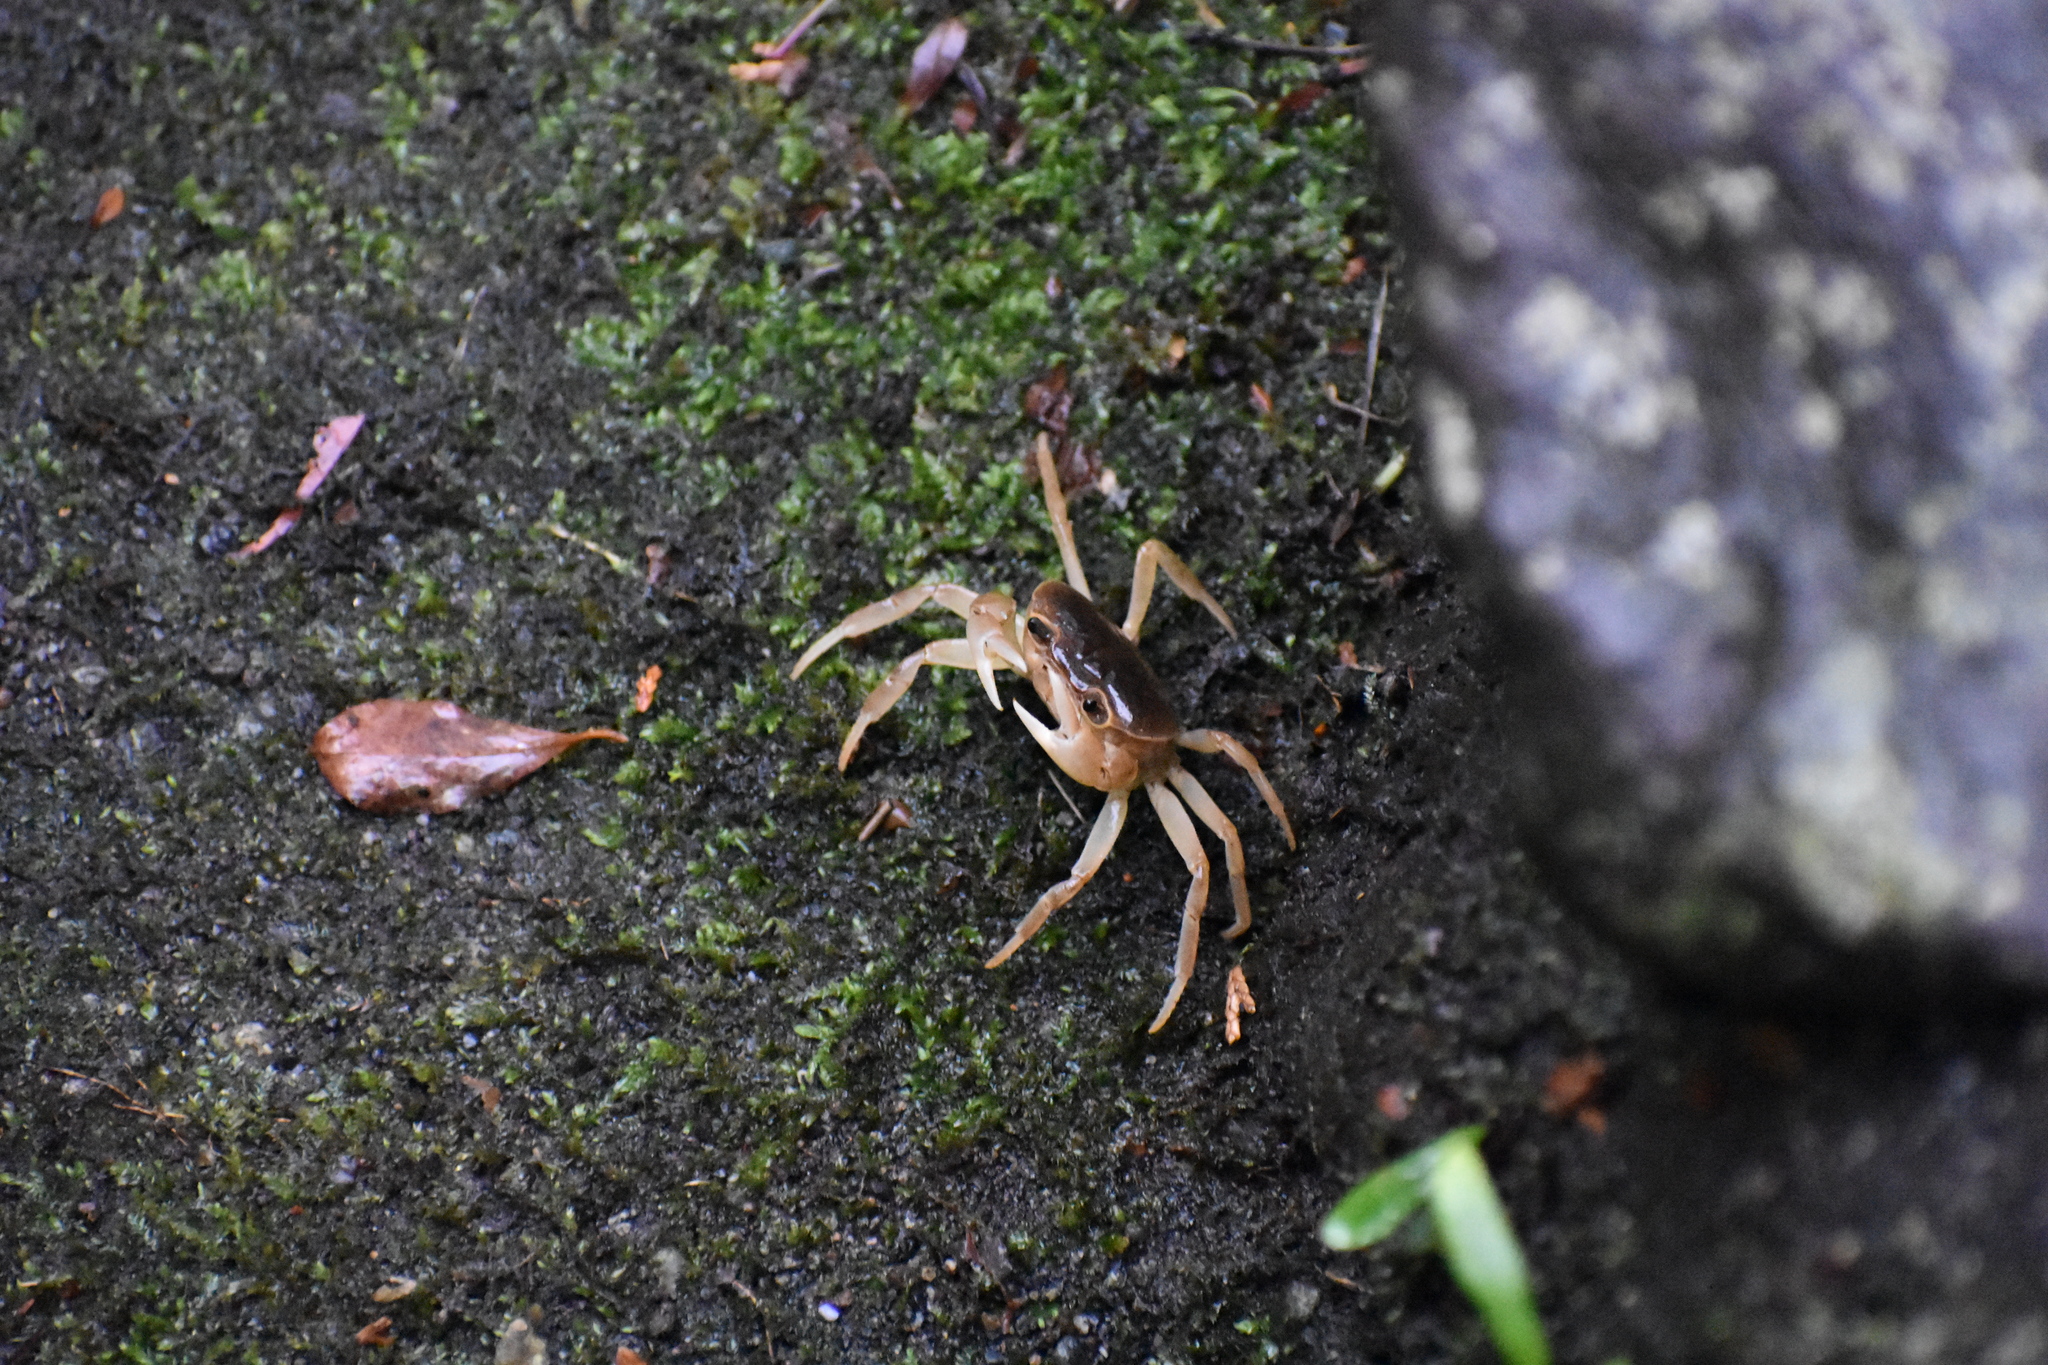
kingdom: Animalia
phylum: Arthropoda
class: Malacostraca
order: Decapoda
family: Potamidae
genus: Geothelphusa
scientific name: Geothelphusa dehaani
